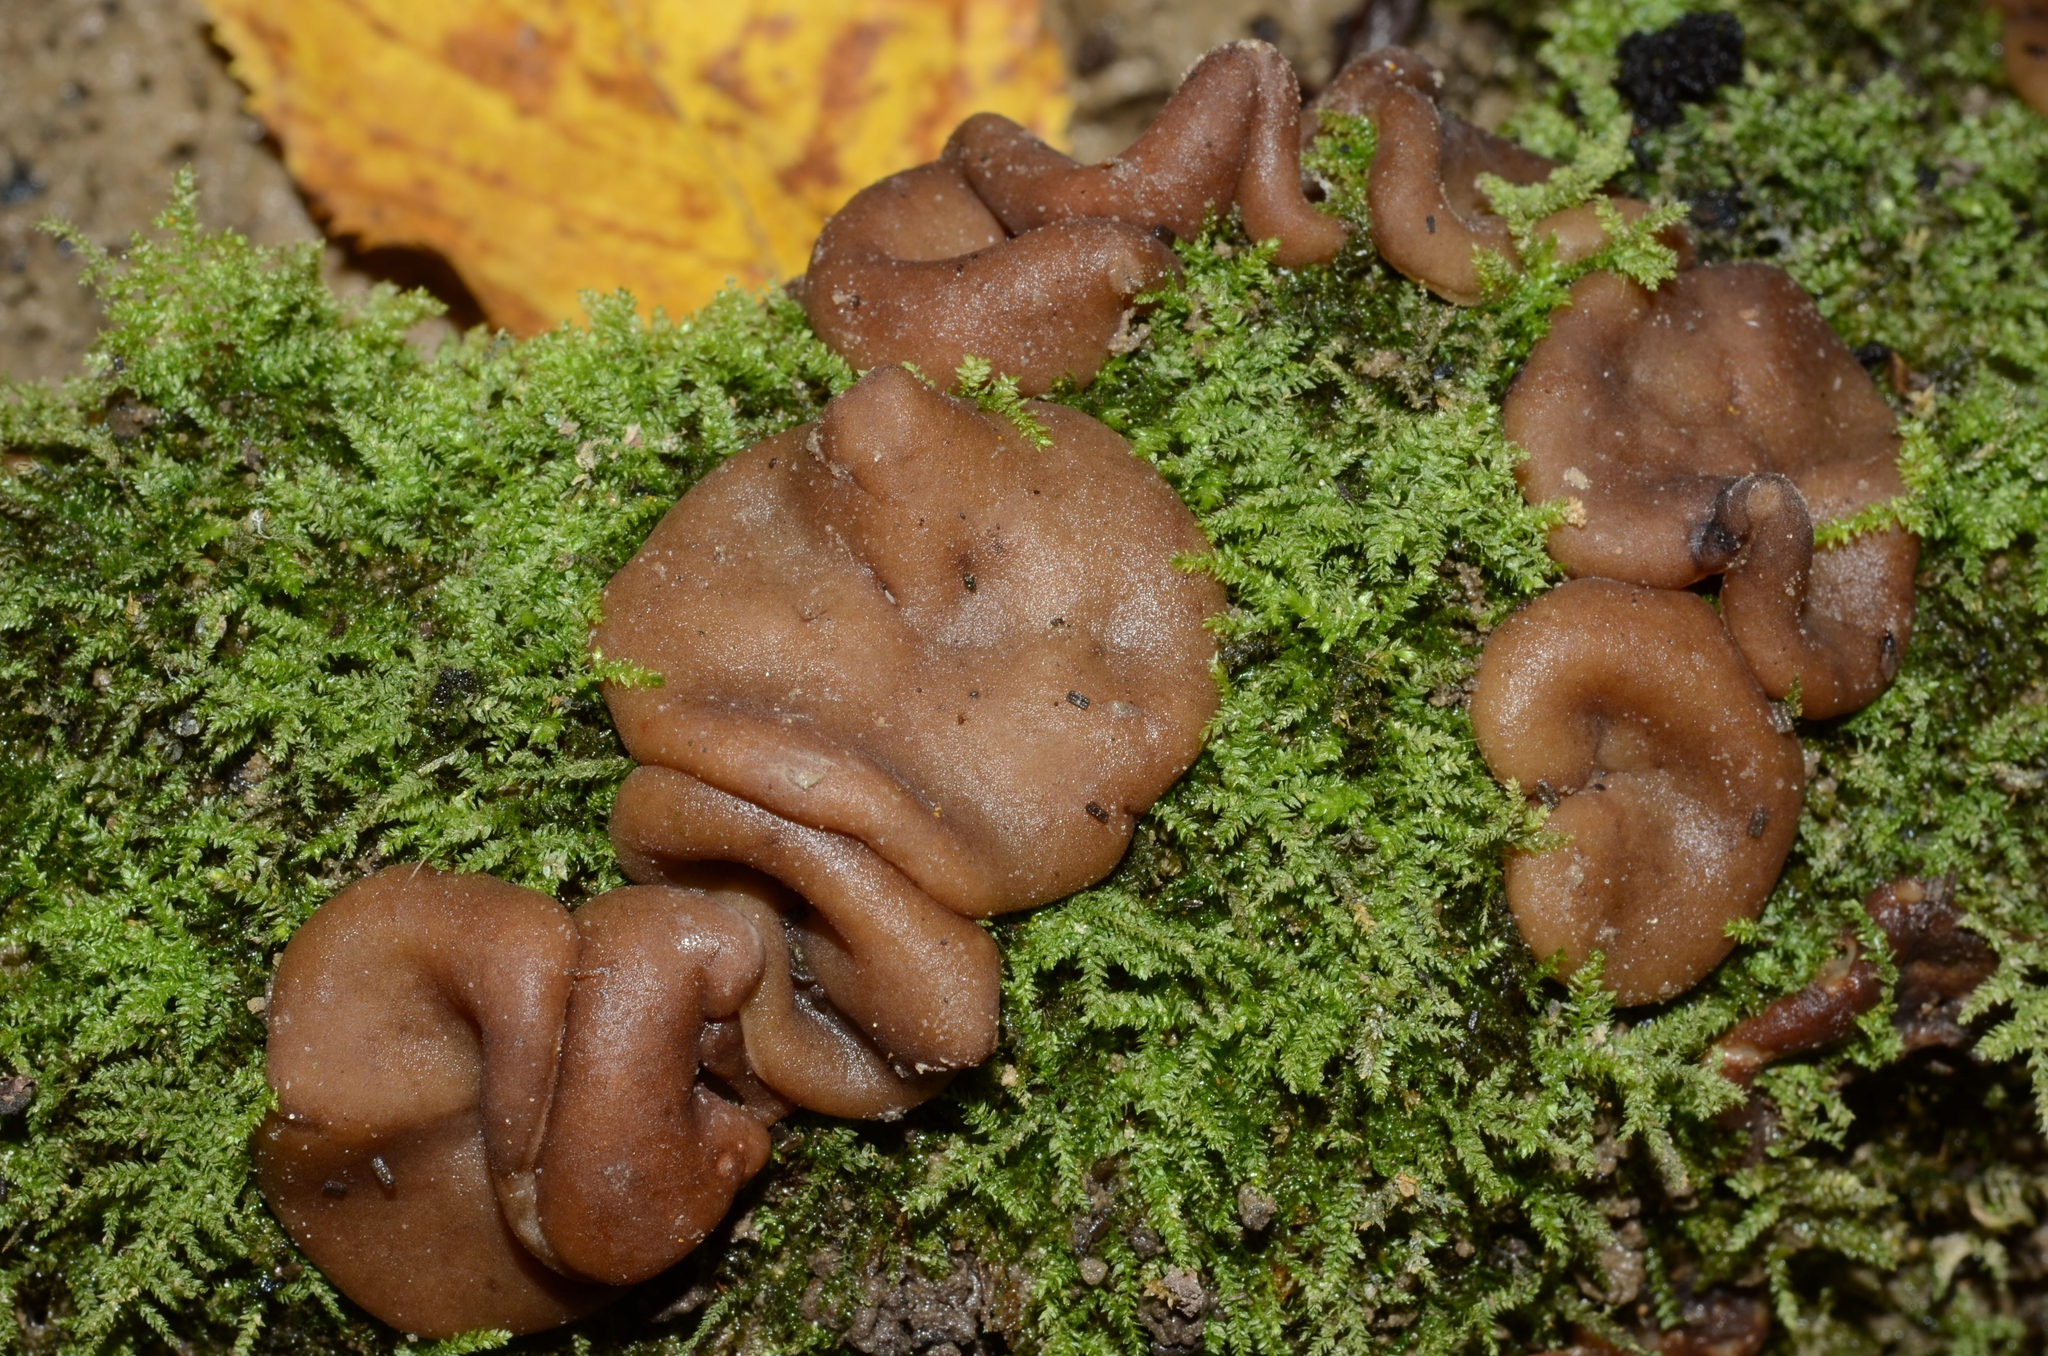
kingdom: Fungi
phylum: Ascomycota
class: Pezizomycetes
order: Pezizales
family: Rhizinaceae
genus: Psilopezia
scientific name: Psilopezia nummularia
